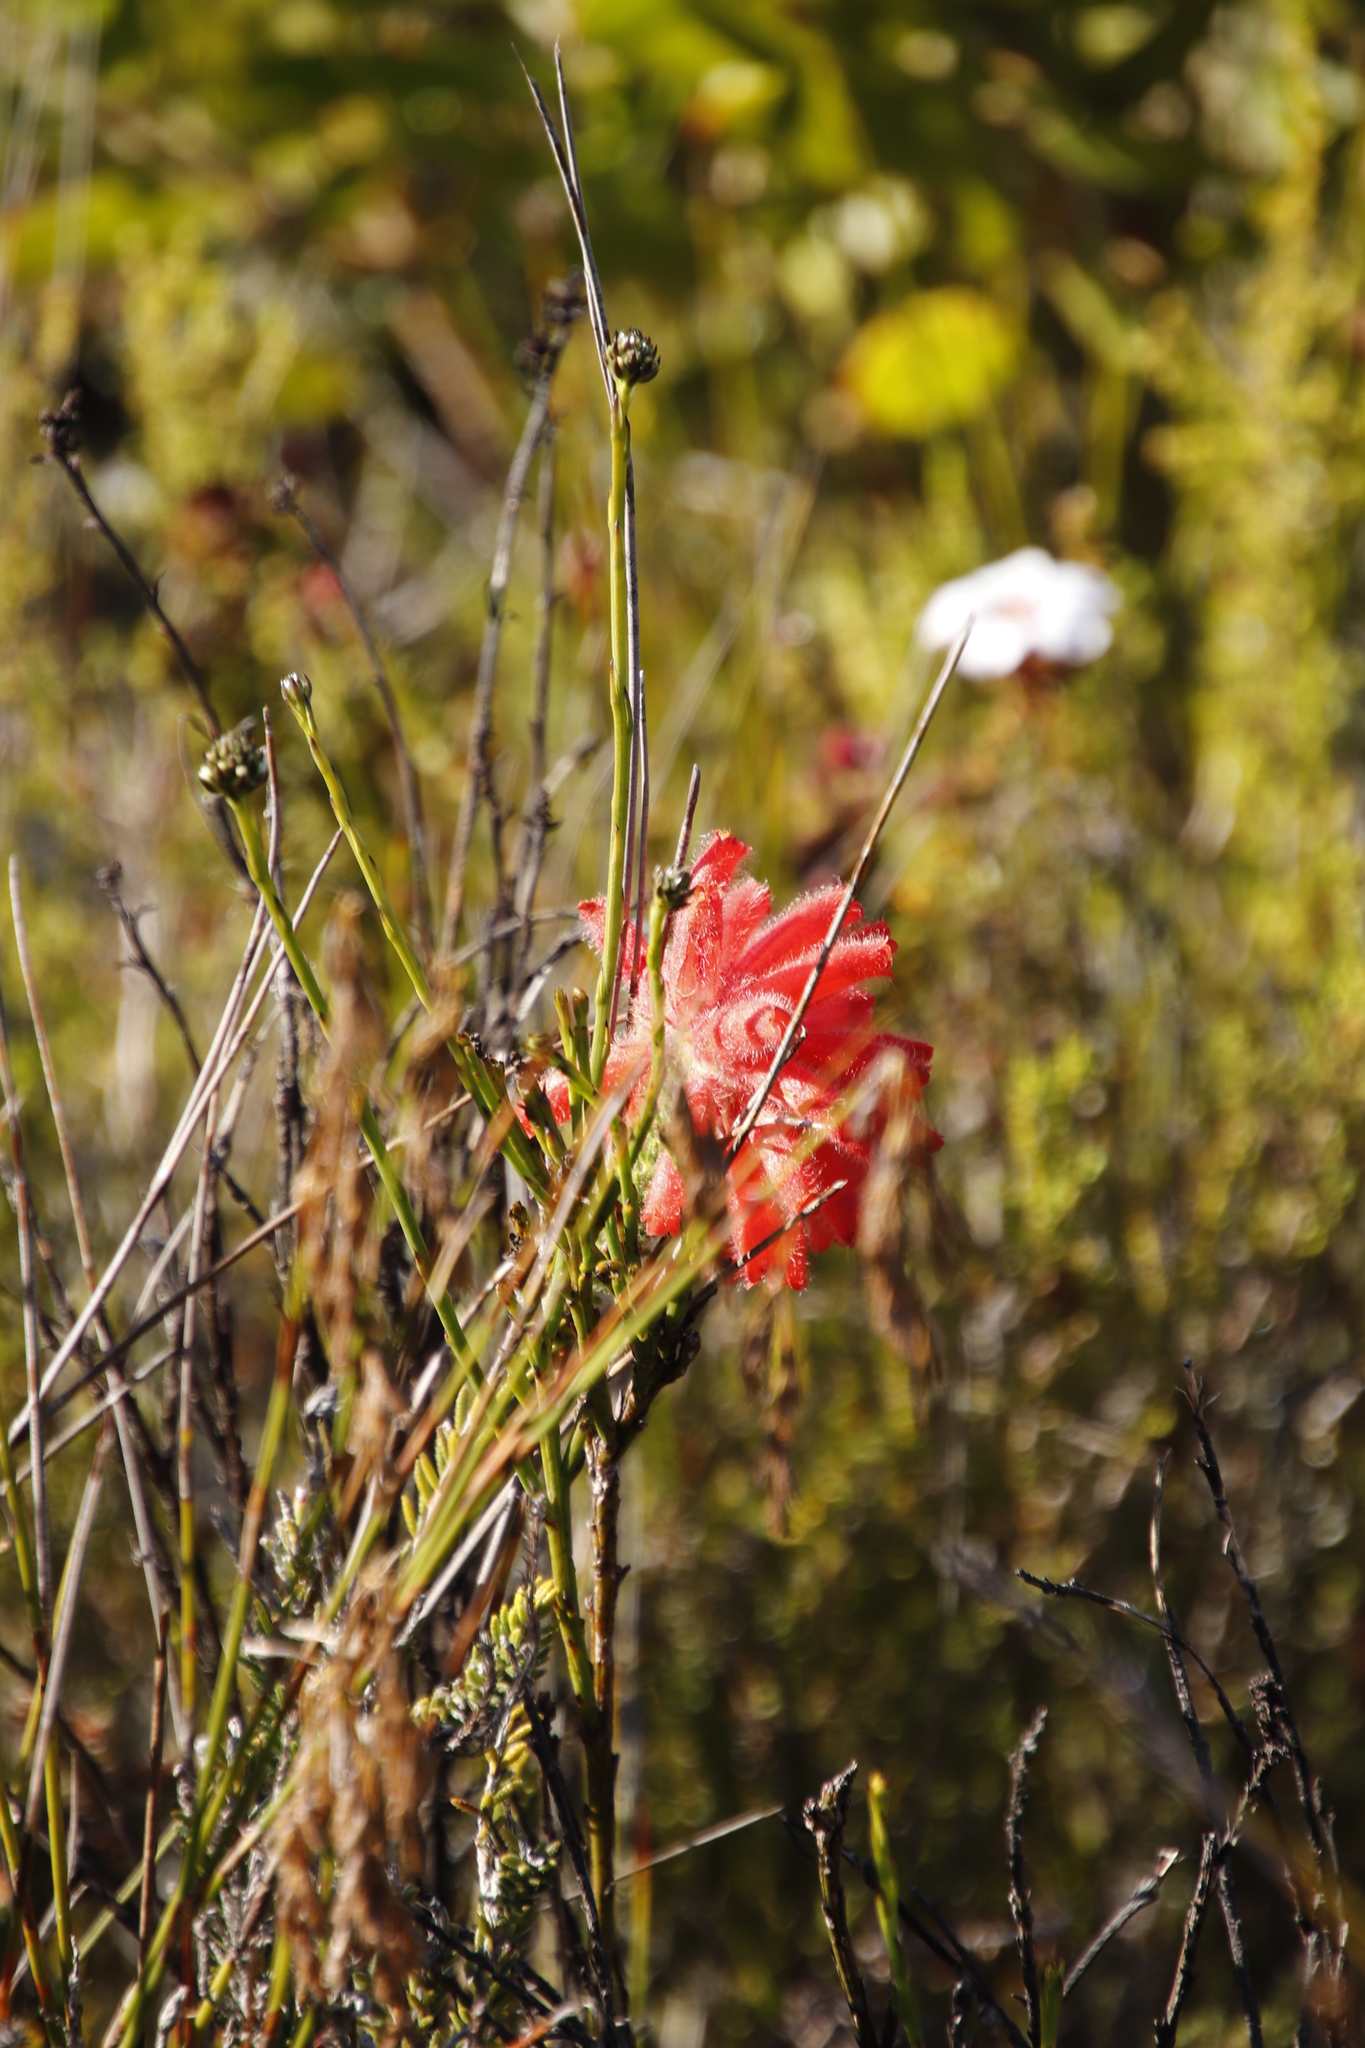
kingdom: Plantae
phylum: Tracheophyta
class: Magnoliopsida
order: Ericales
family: Ericaceae
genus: Erica
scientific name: Erica cerinthoides
